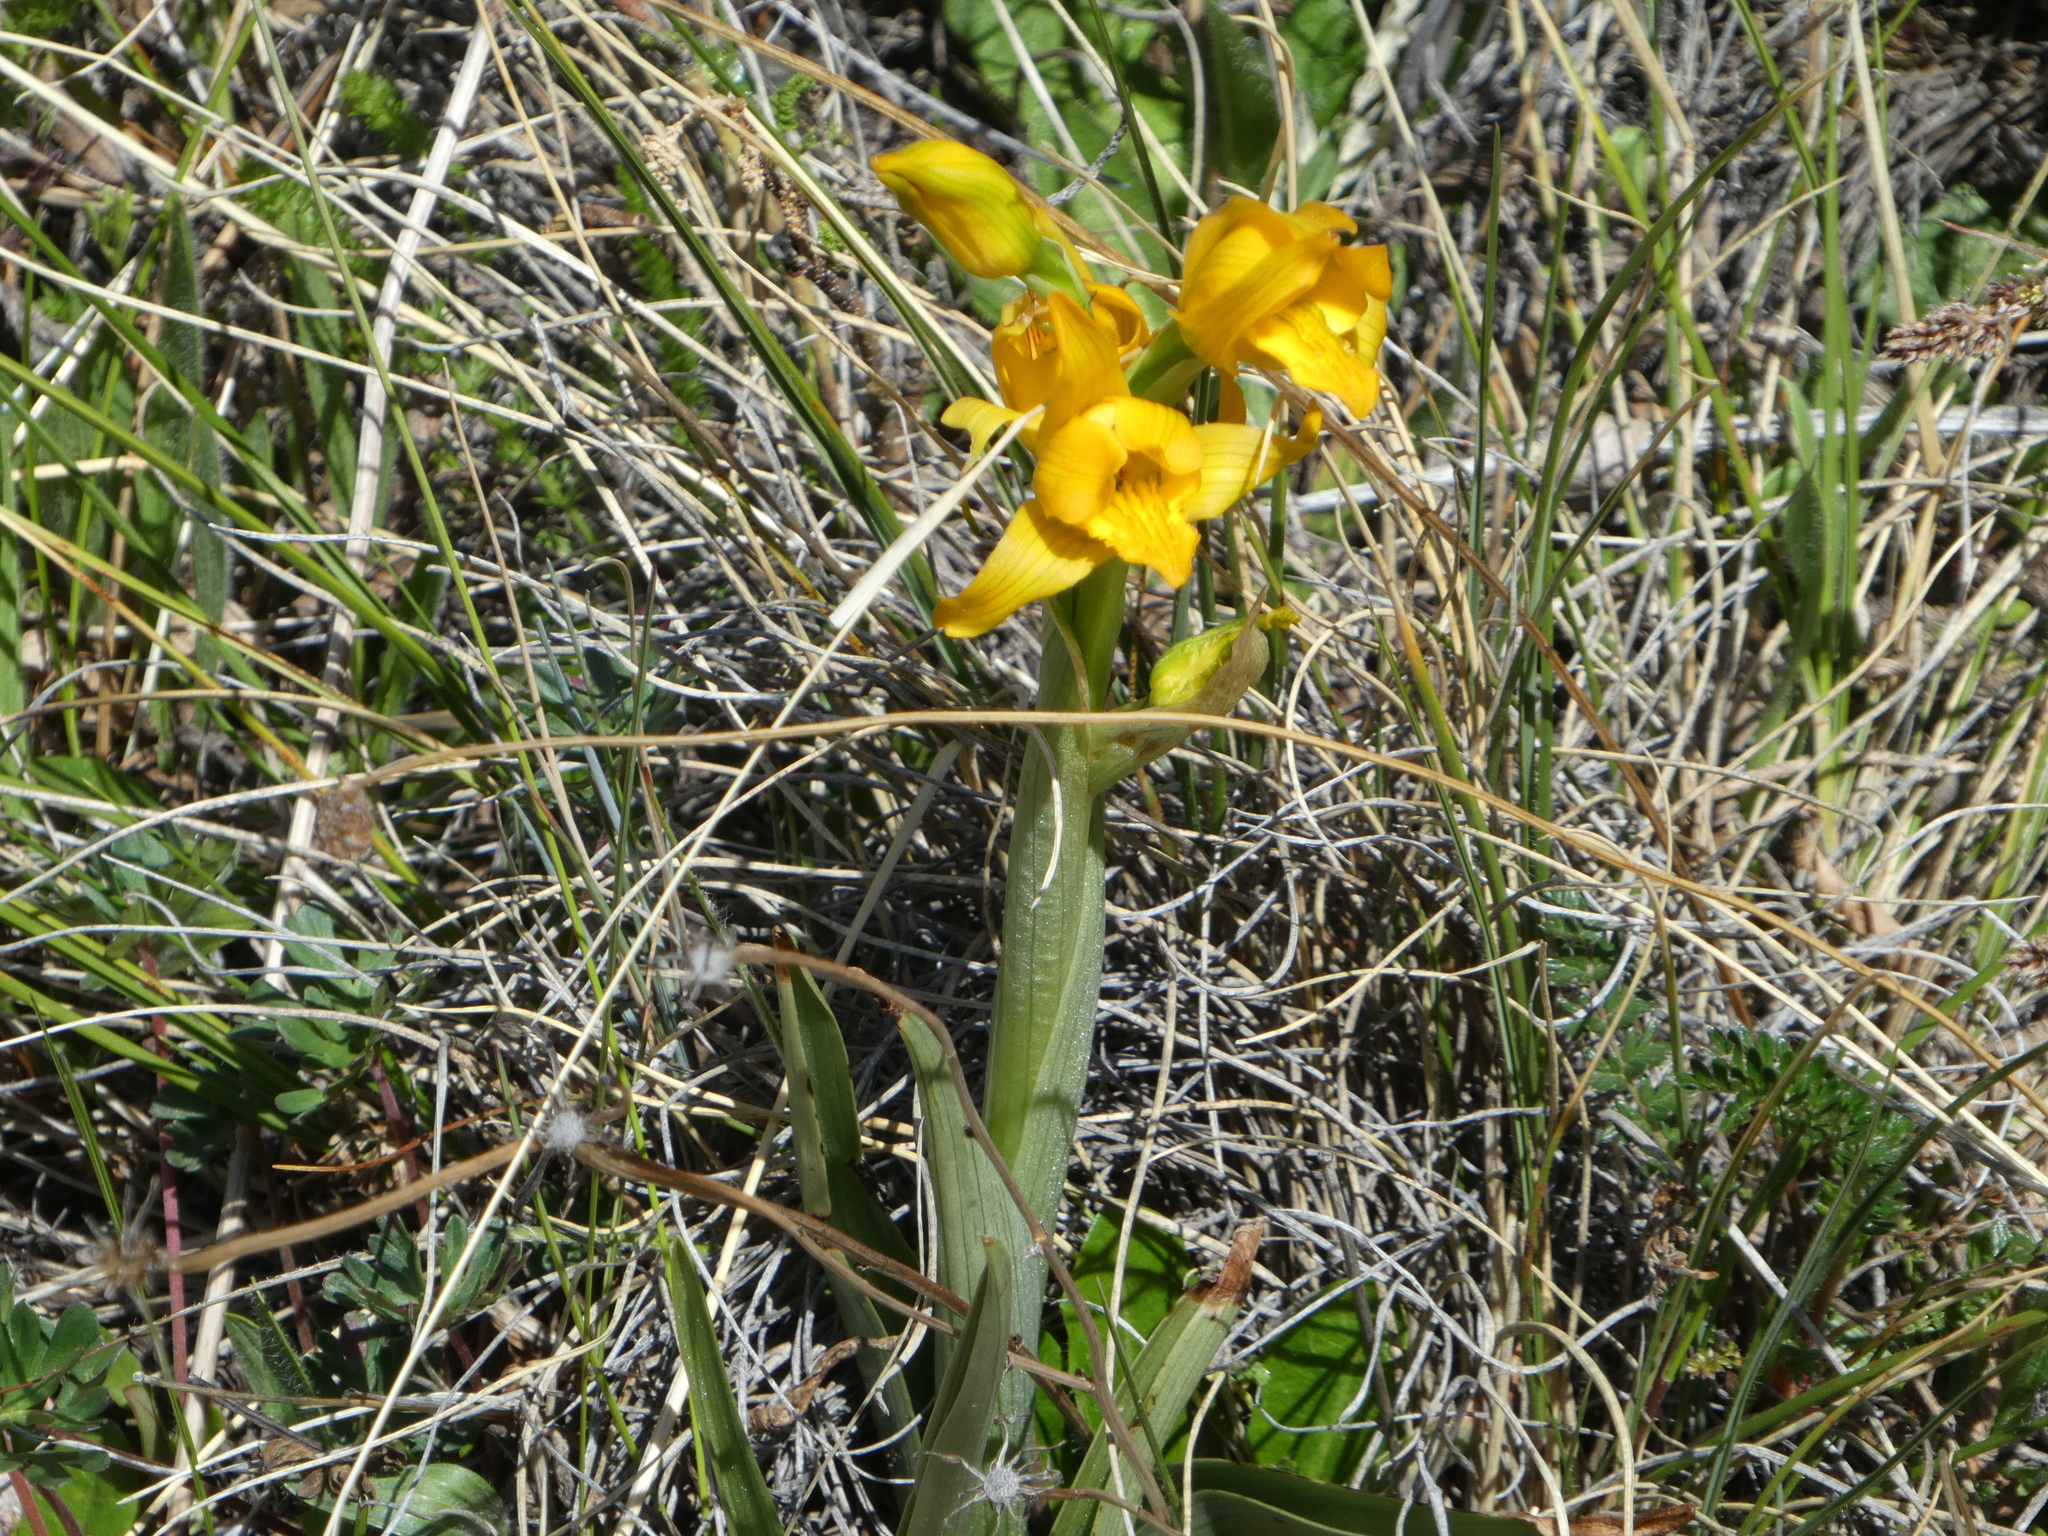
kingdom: Plantae
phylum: Tracheophyta
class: Liliopsida
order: Asparagales
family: Orchidaceae
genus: Chloraea
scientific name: Chloraea alpina
